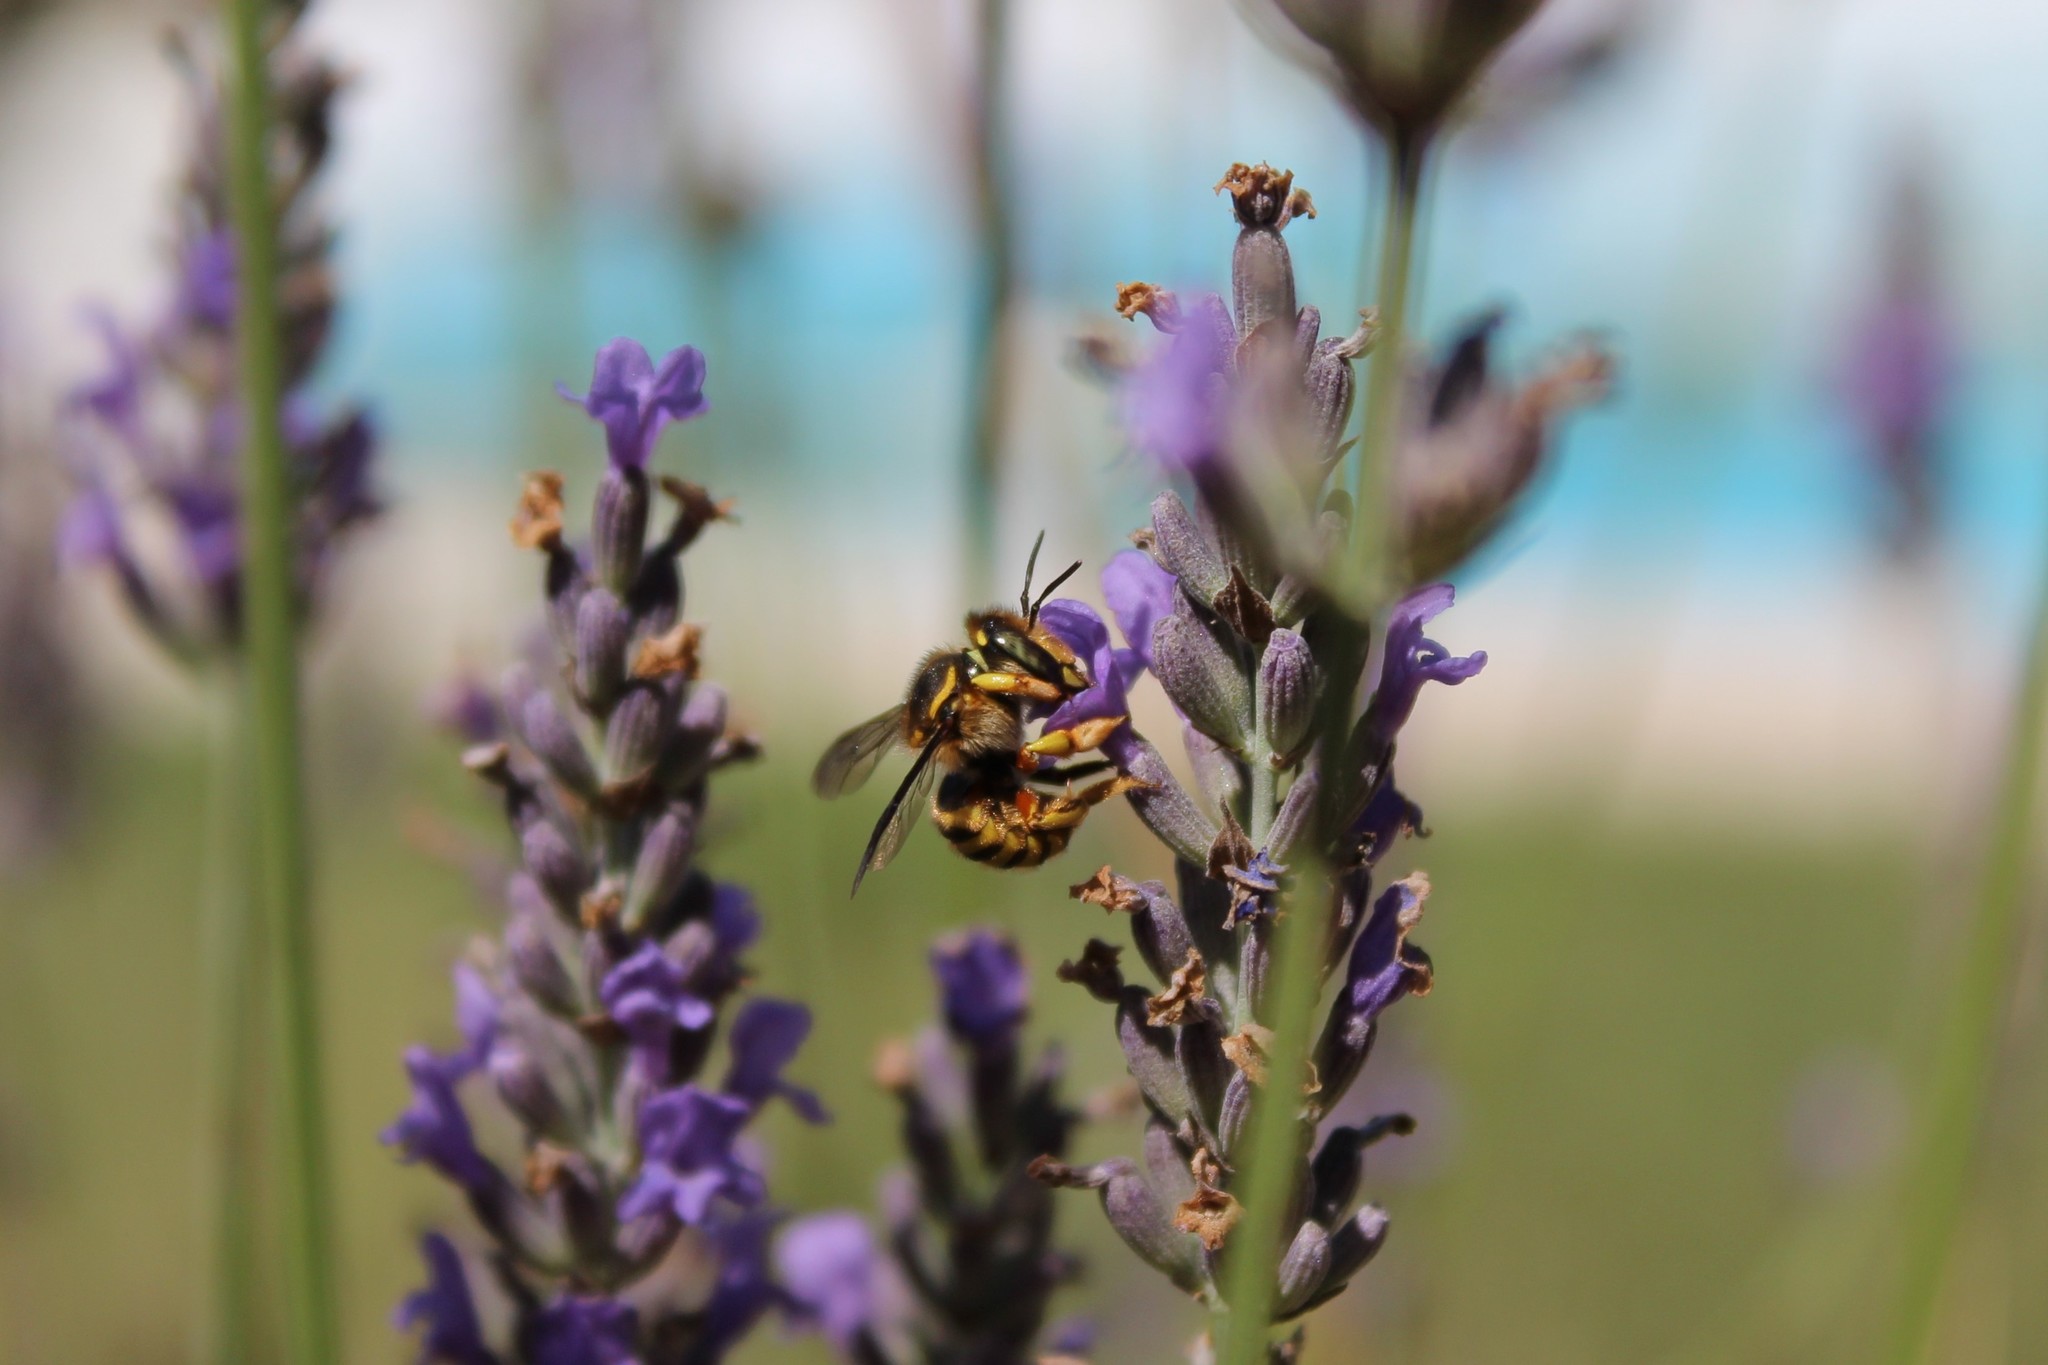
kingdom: Animalia
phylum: Arthropoda
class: Insecta
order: Hymenoptera
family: Megachilidae
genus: Anthidium
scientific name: Anthidium manicatum
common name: Wool carder bee
